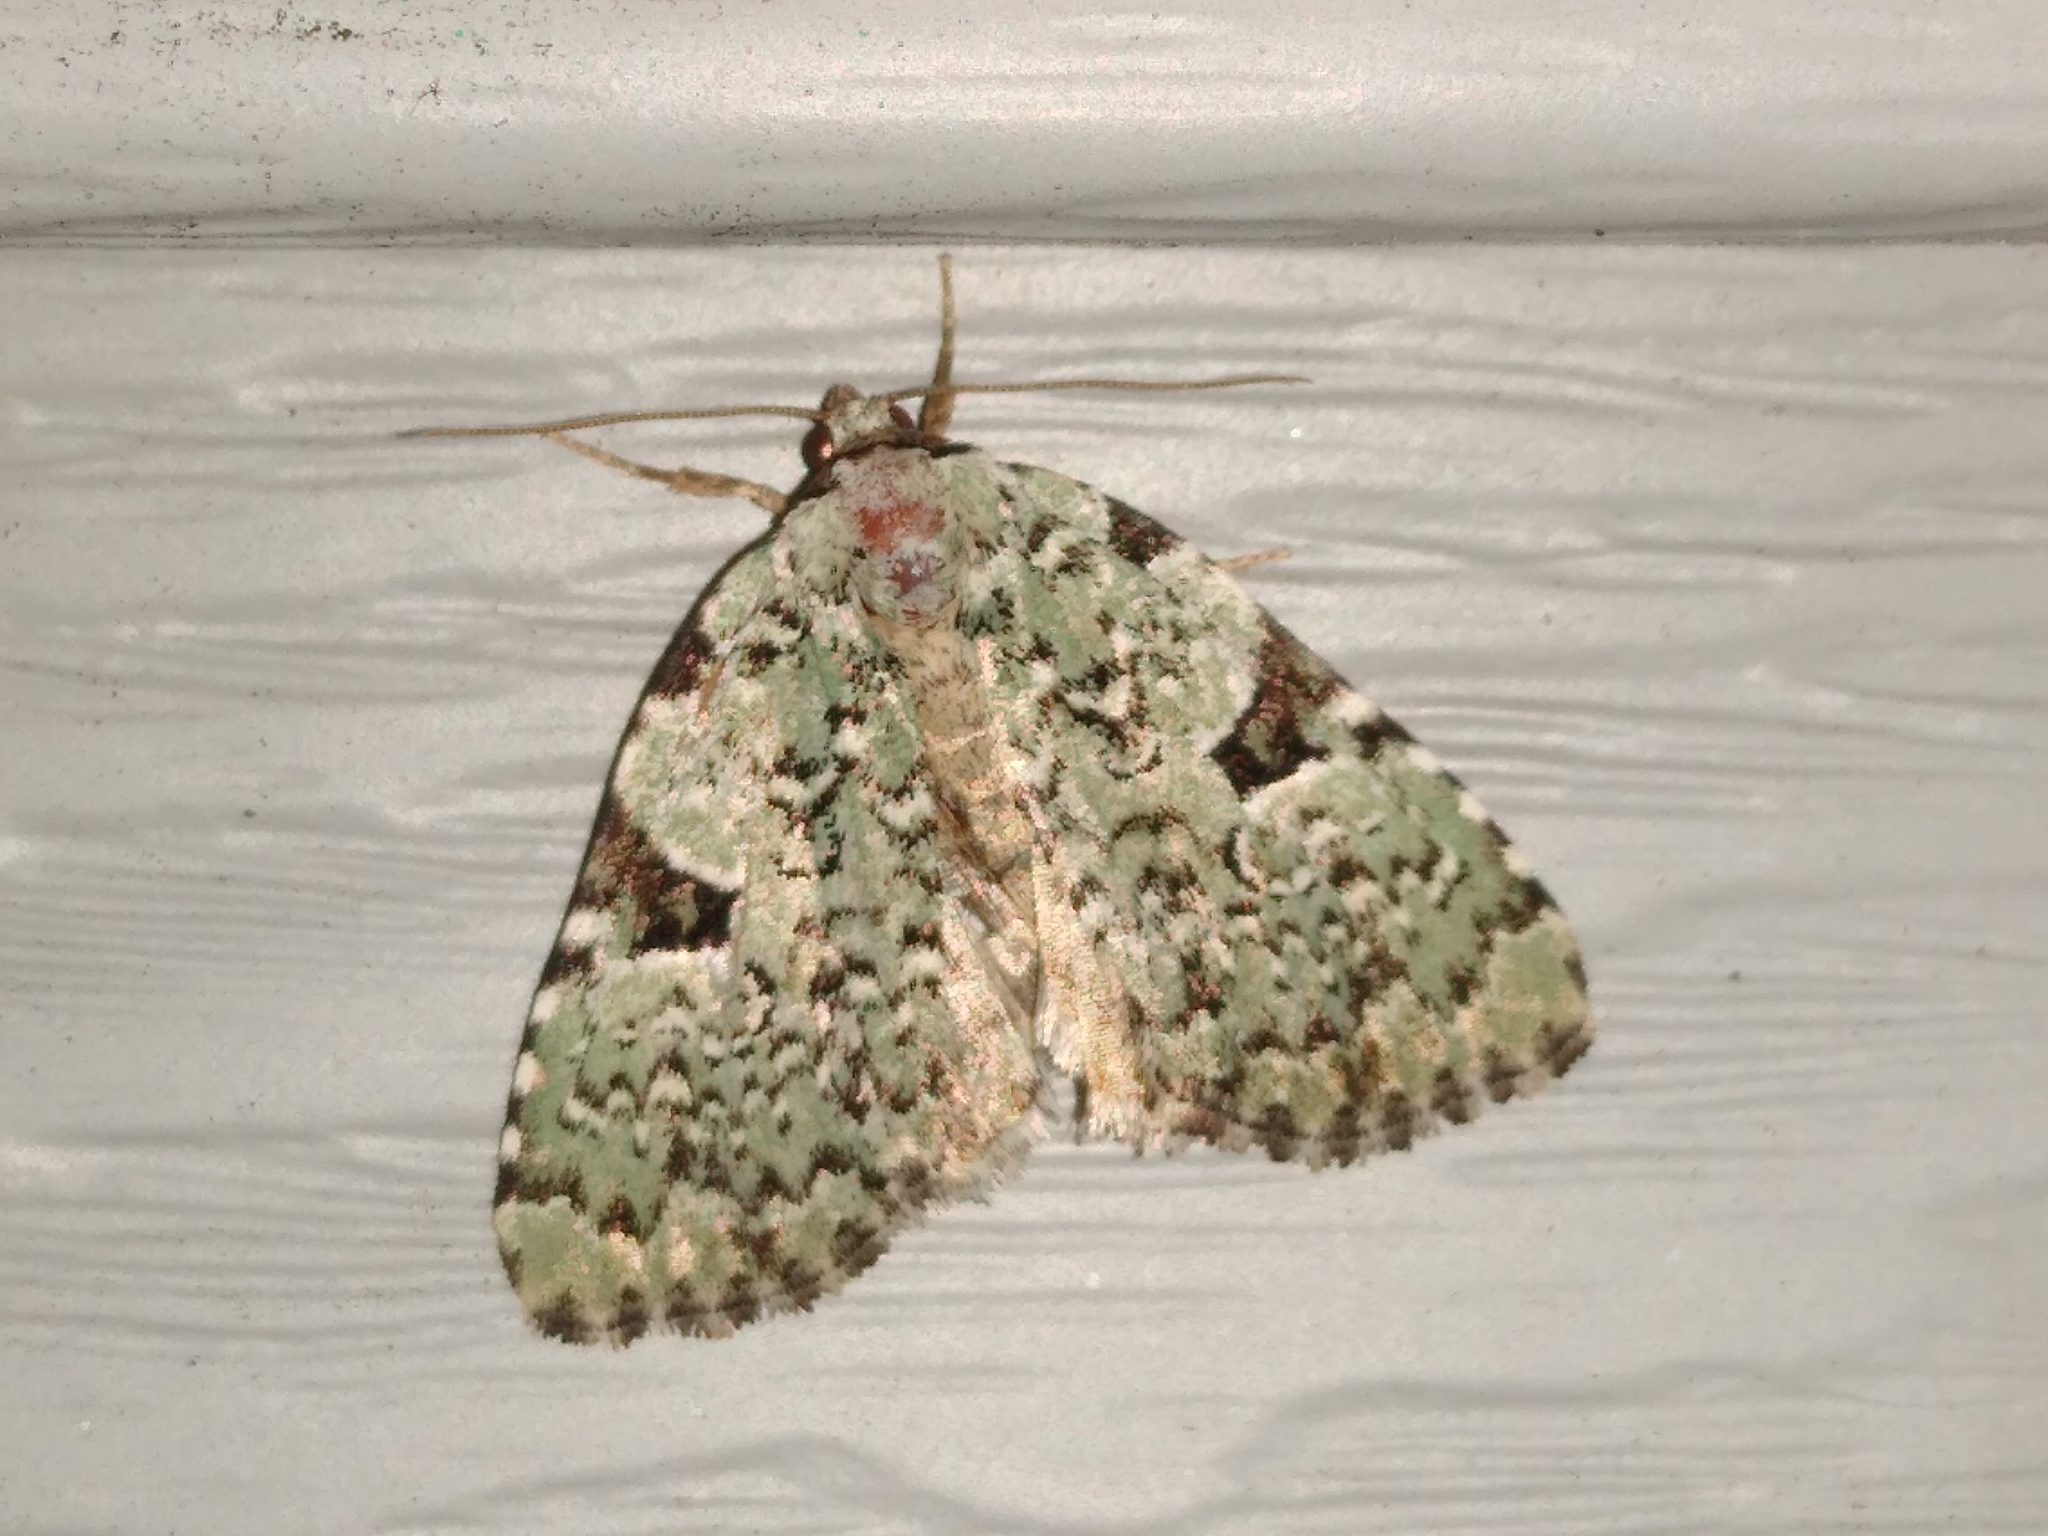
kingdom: Animalia
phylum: Arthropoda
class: Insecta
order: Lepidoptera
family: Noctuidae
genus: Leuconycta
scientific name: Leuconycta diphteroides
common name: Green leuconycta moth
